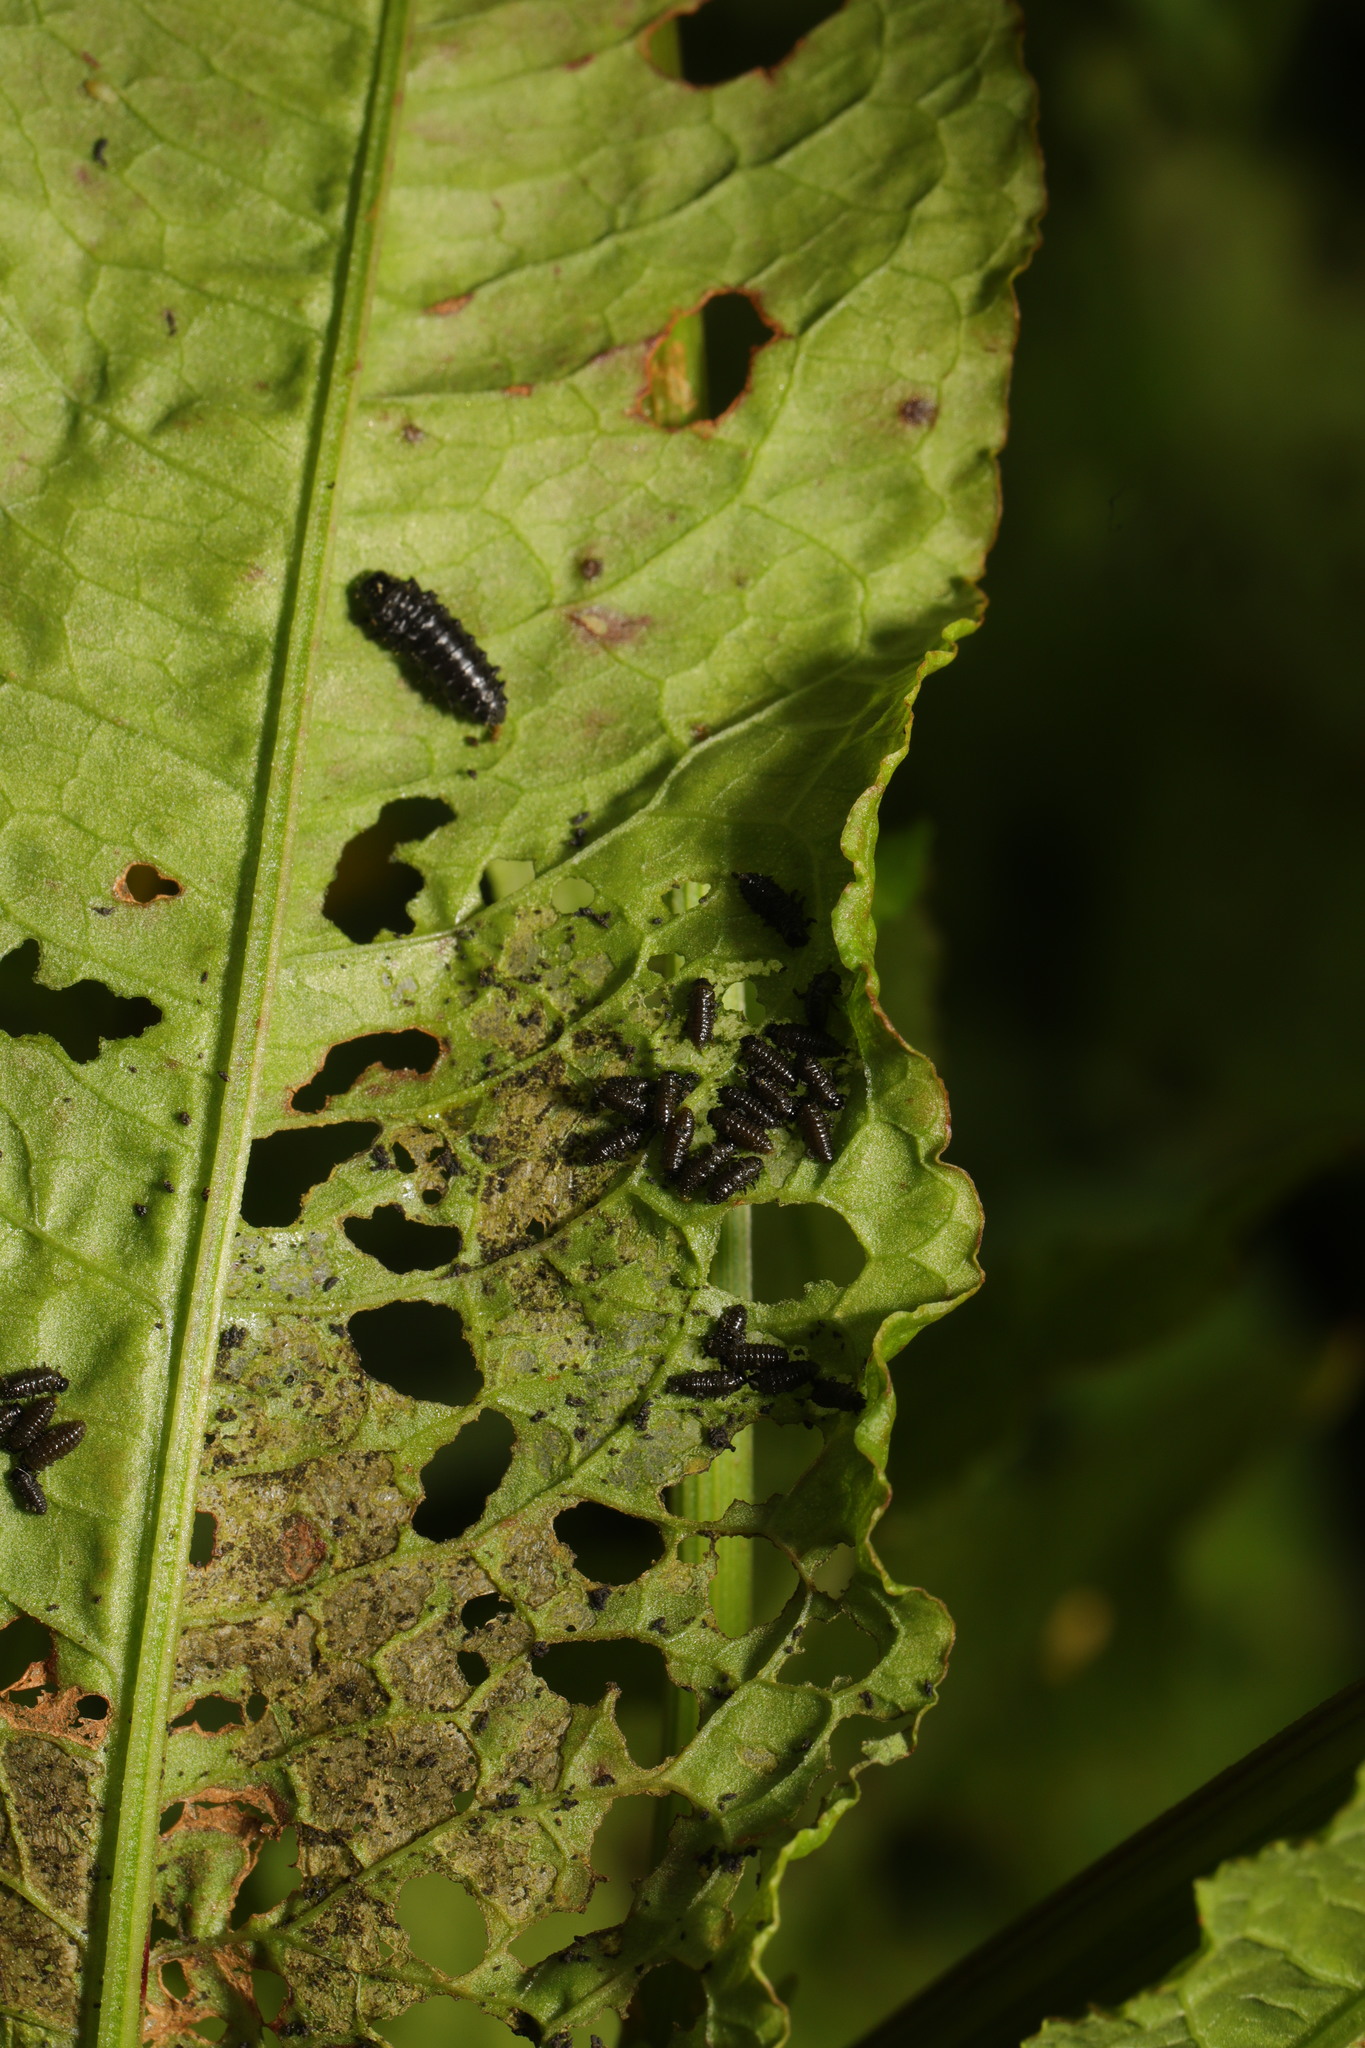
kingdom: Animalia
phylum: Arthropoda
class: Insecta
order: Coleoptera
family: Chrysomelidae
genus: Gastrophysa
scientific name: Gastrophysa viridula
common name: Green dock beetle
